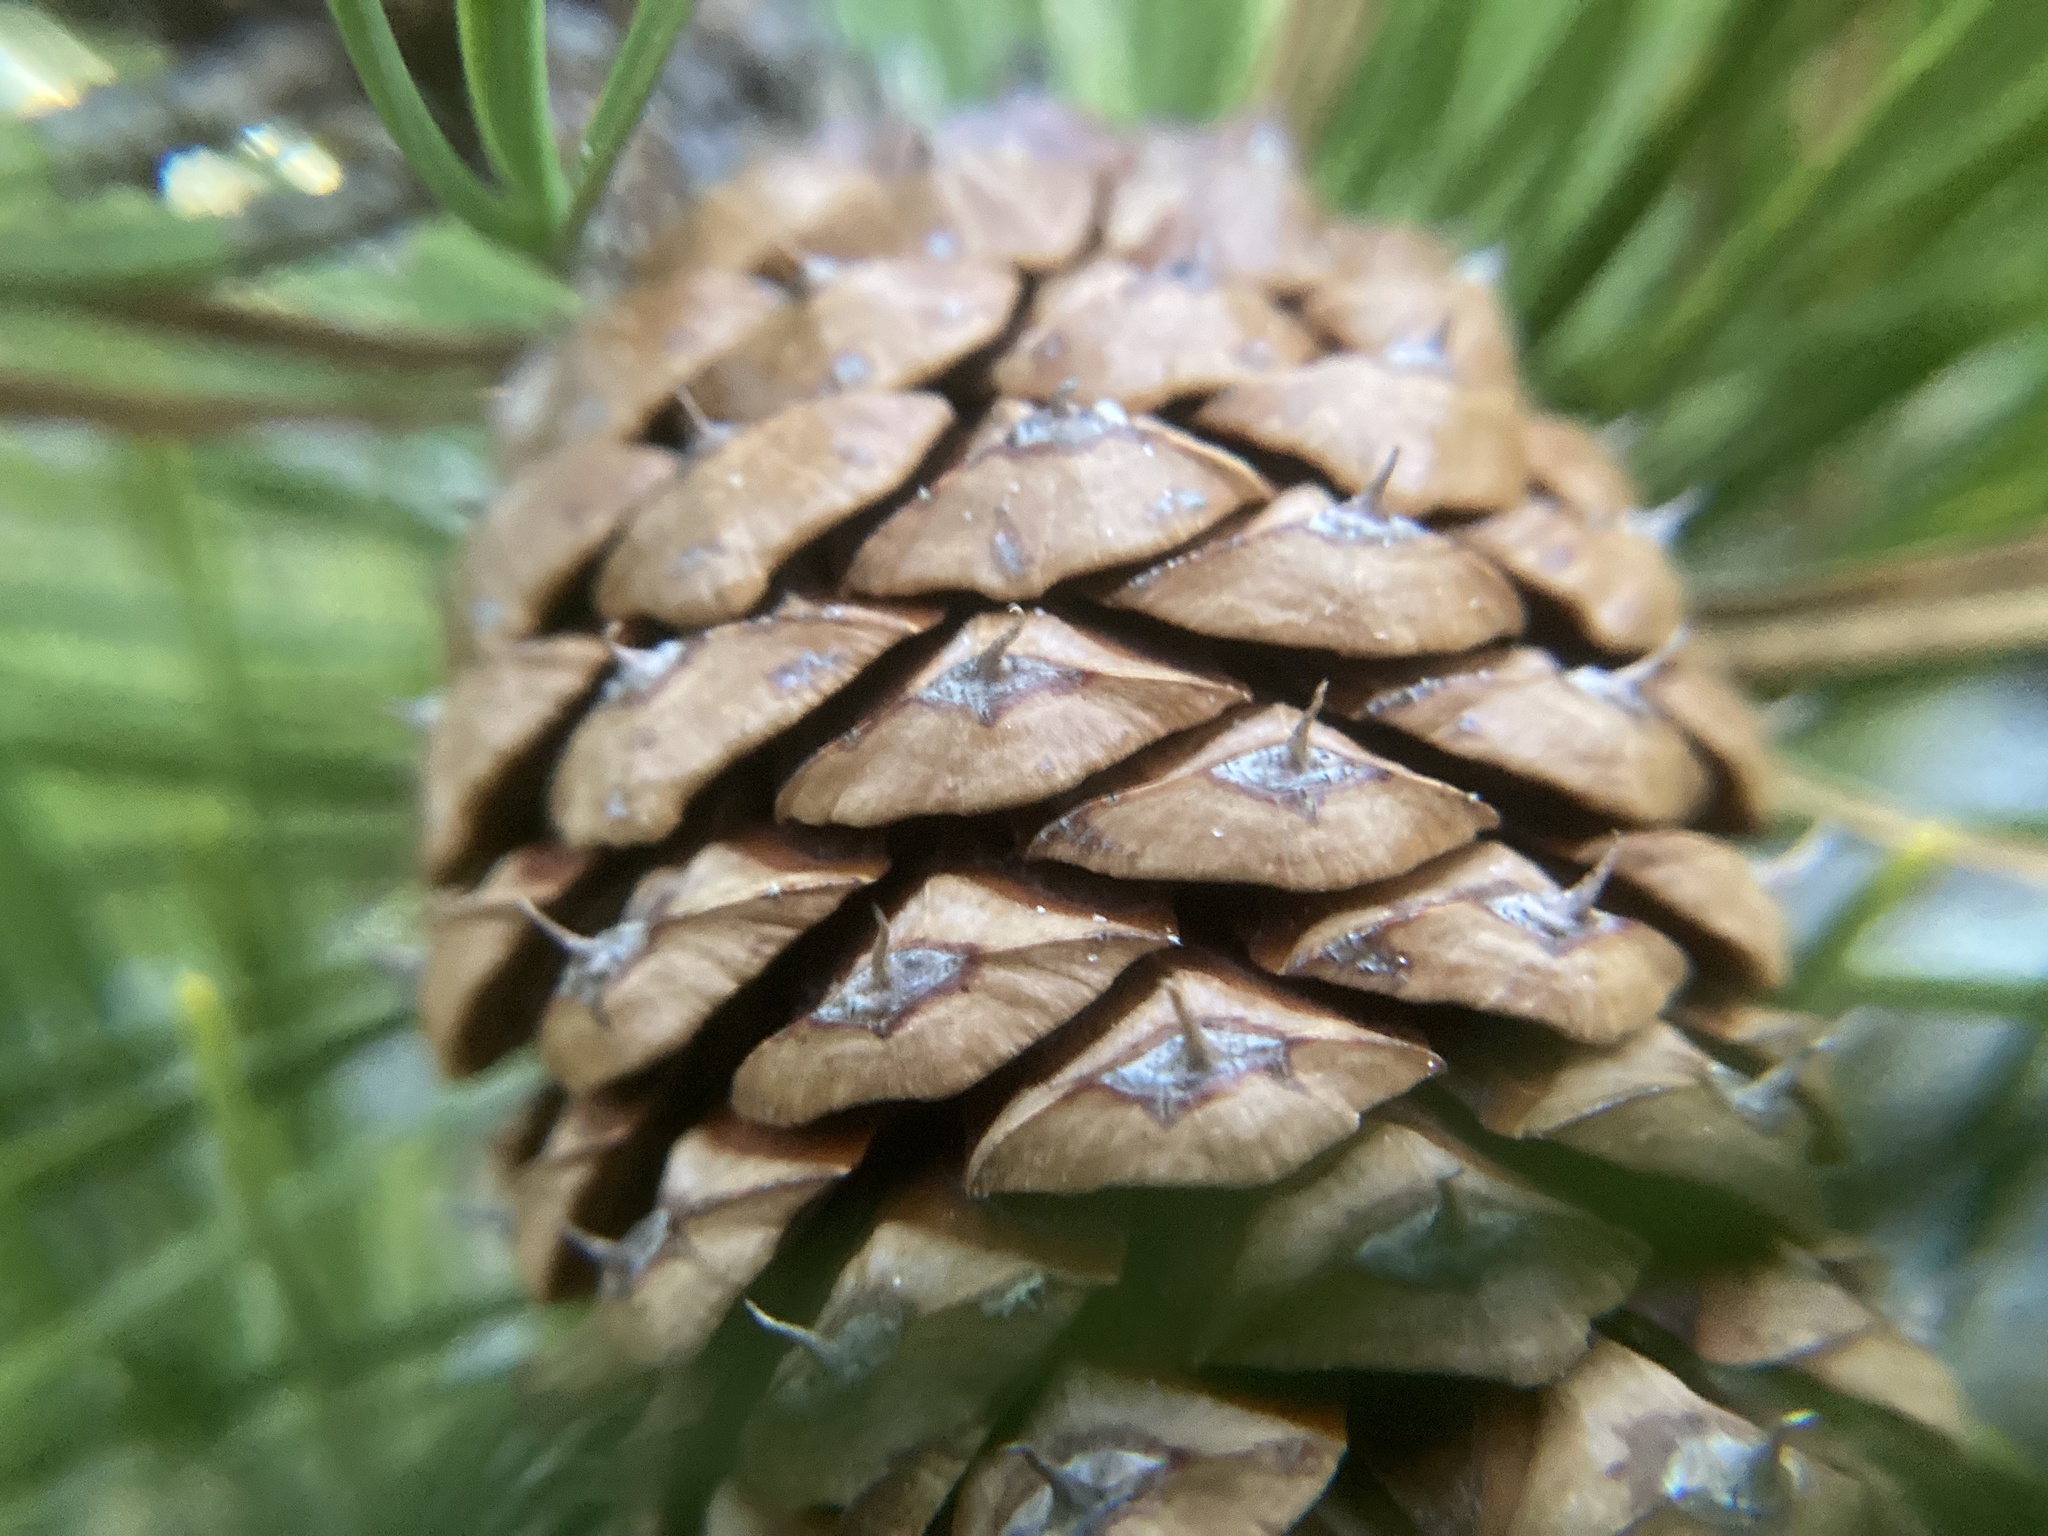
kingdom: Plantae
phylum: Tracheophyta
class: Pinopsida
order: Pinales
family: Pinaceae
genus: Pinus
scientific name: Pinus rigida
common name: Pitch pine
